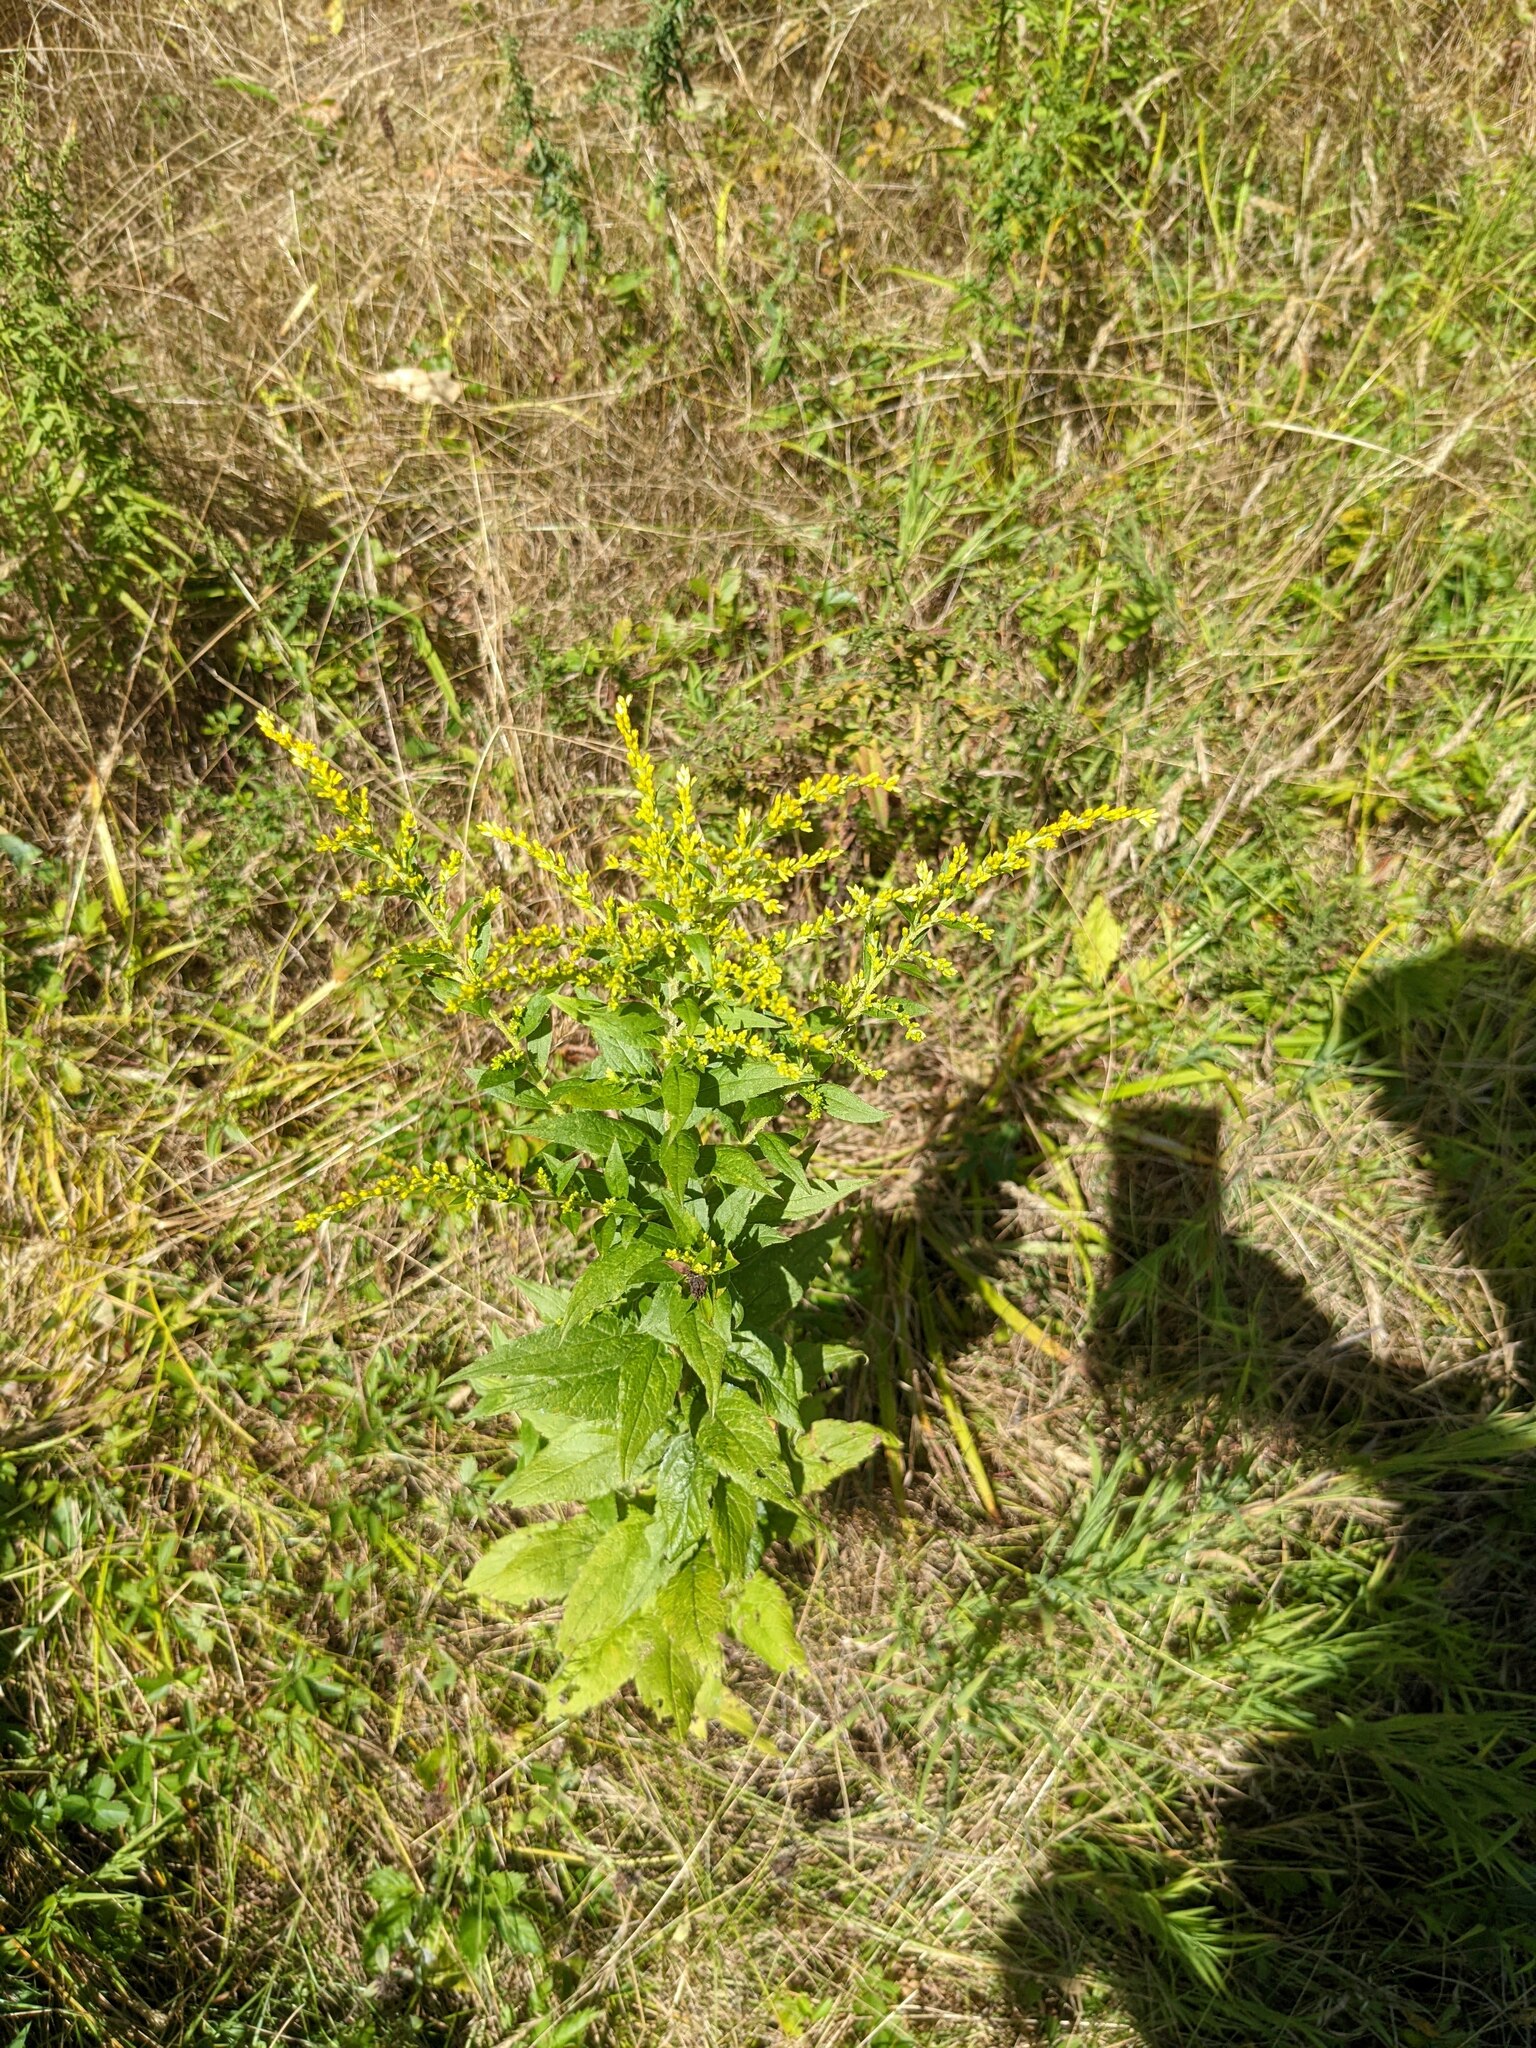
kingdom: Plantae
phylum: Tracheophyta
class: Magnoliopsida
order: Asterales
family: Asteraceae
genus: Solidago
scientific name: Solidago rugosa
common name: Rough-stemmed goldenrod
